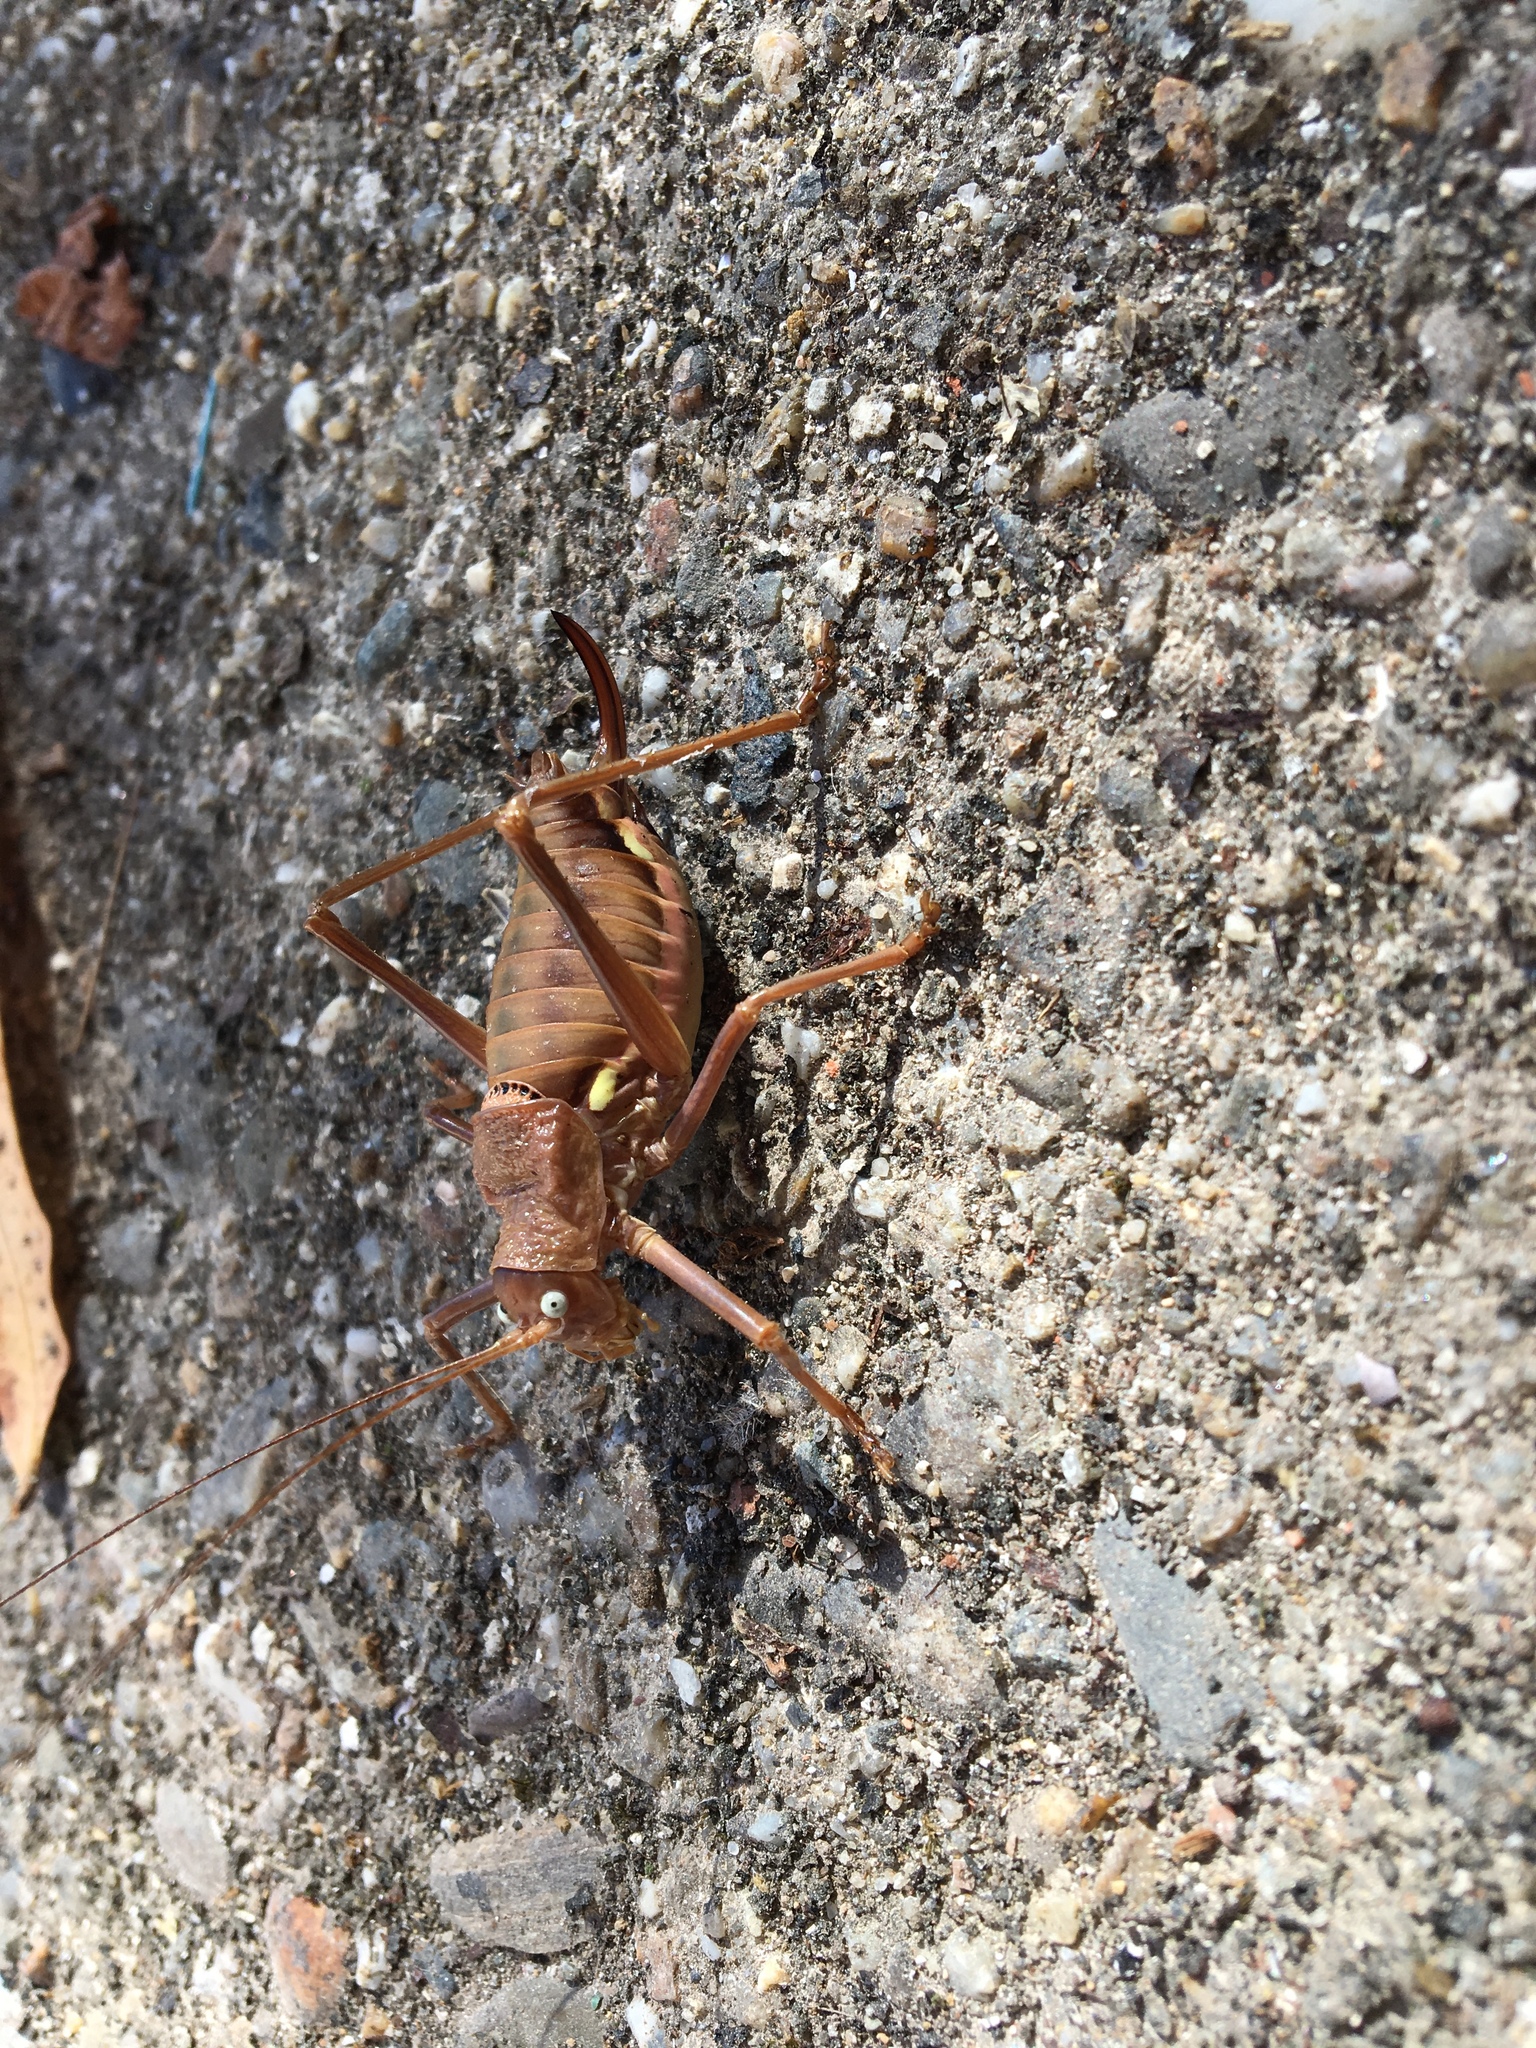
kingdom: Animalia
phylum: Arthropoda
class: Insecta
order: Orthoptera
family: Tettigoniidae
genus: Uromenus
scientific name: Uromenus rugosicollis
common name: Rough saddle bush-cricket
